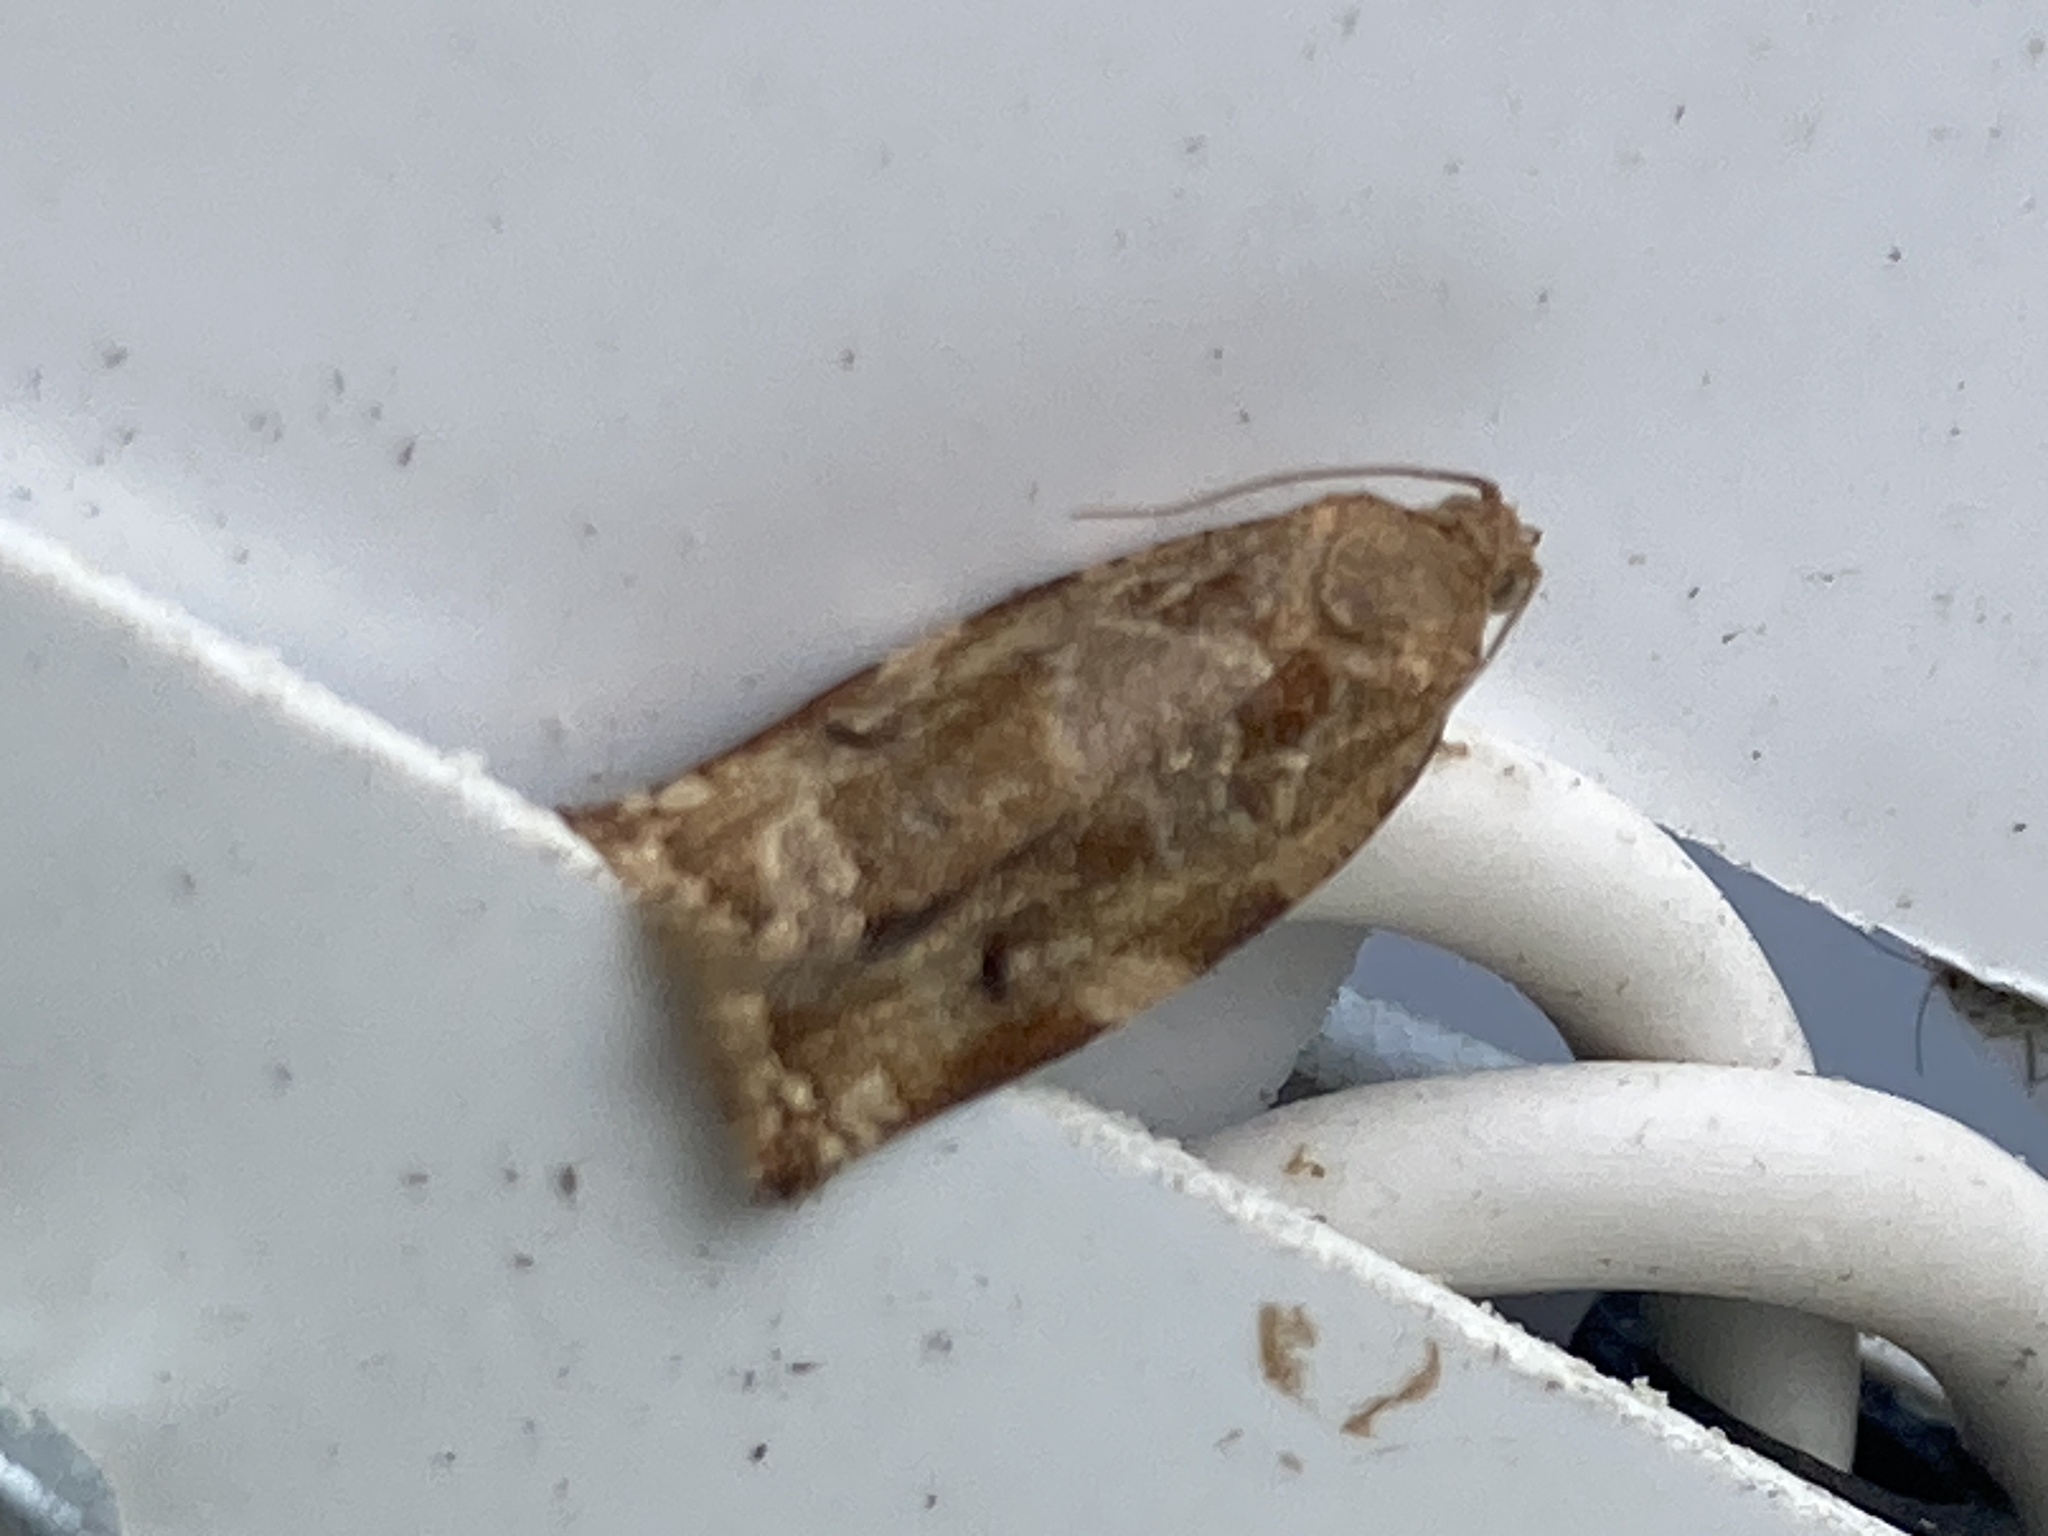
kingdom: Animalia
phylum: Arthropoda
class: Insecta
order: Lepidoptera
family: Tortricidae
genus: Archips
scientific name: Archips xylosteana
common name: Variegated golden tortrix
